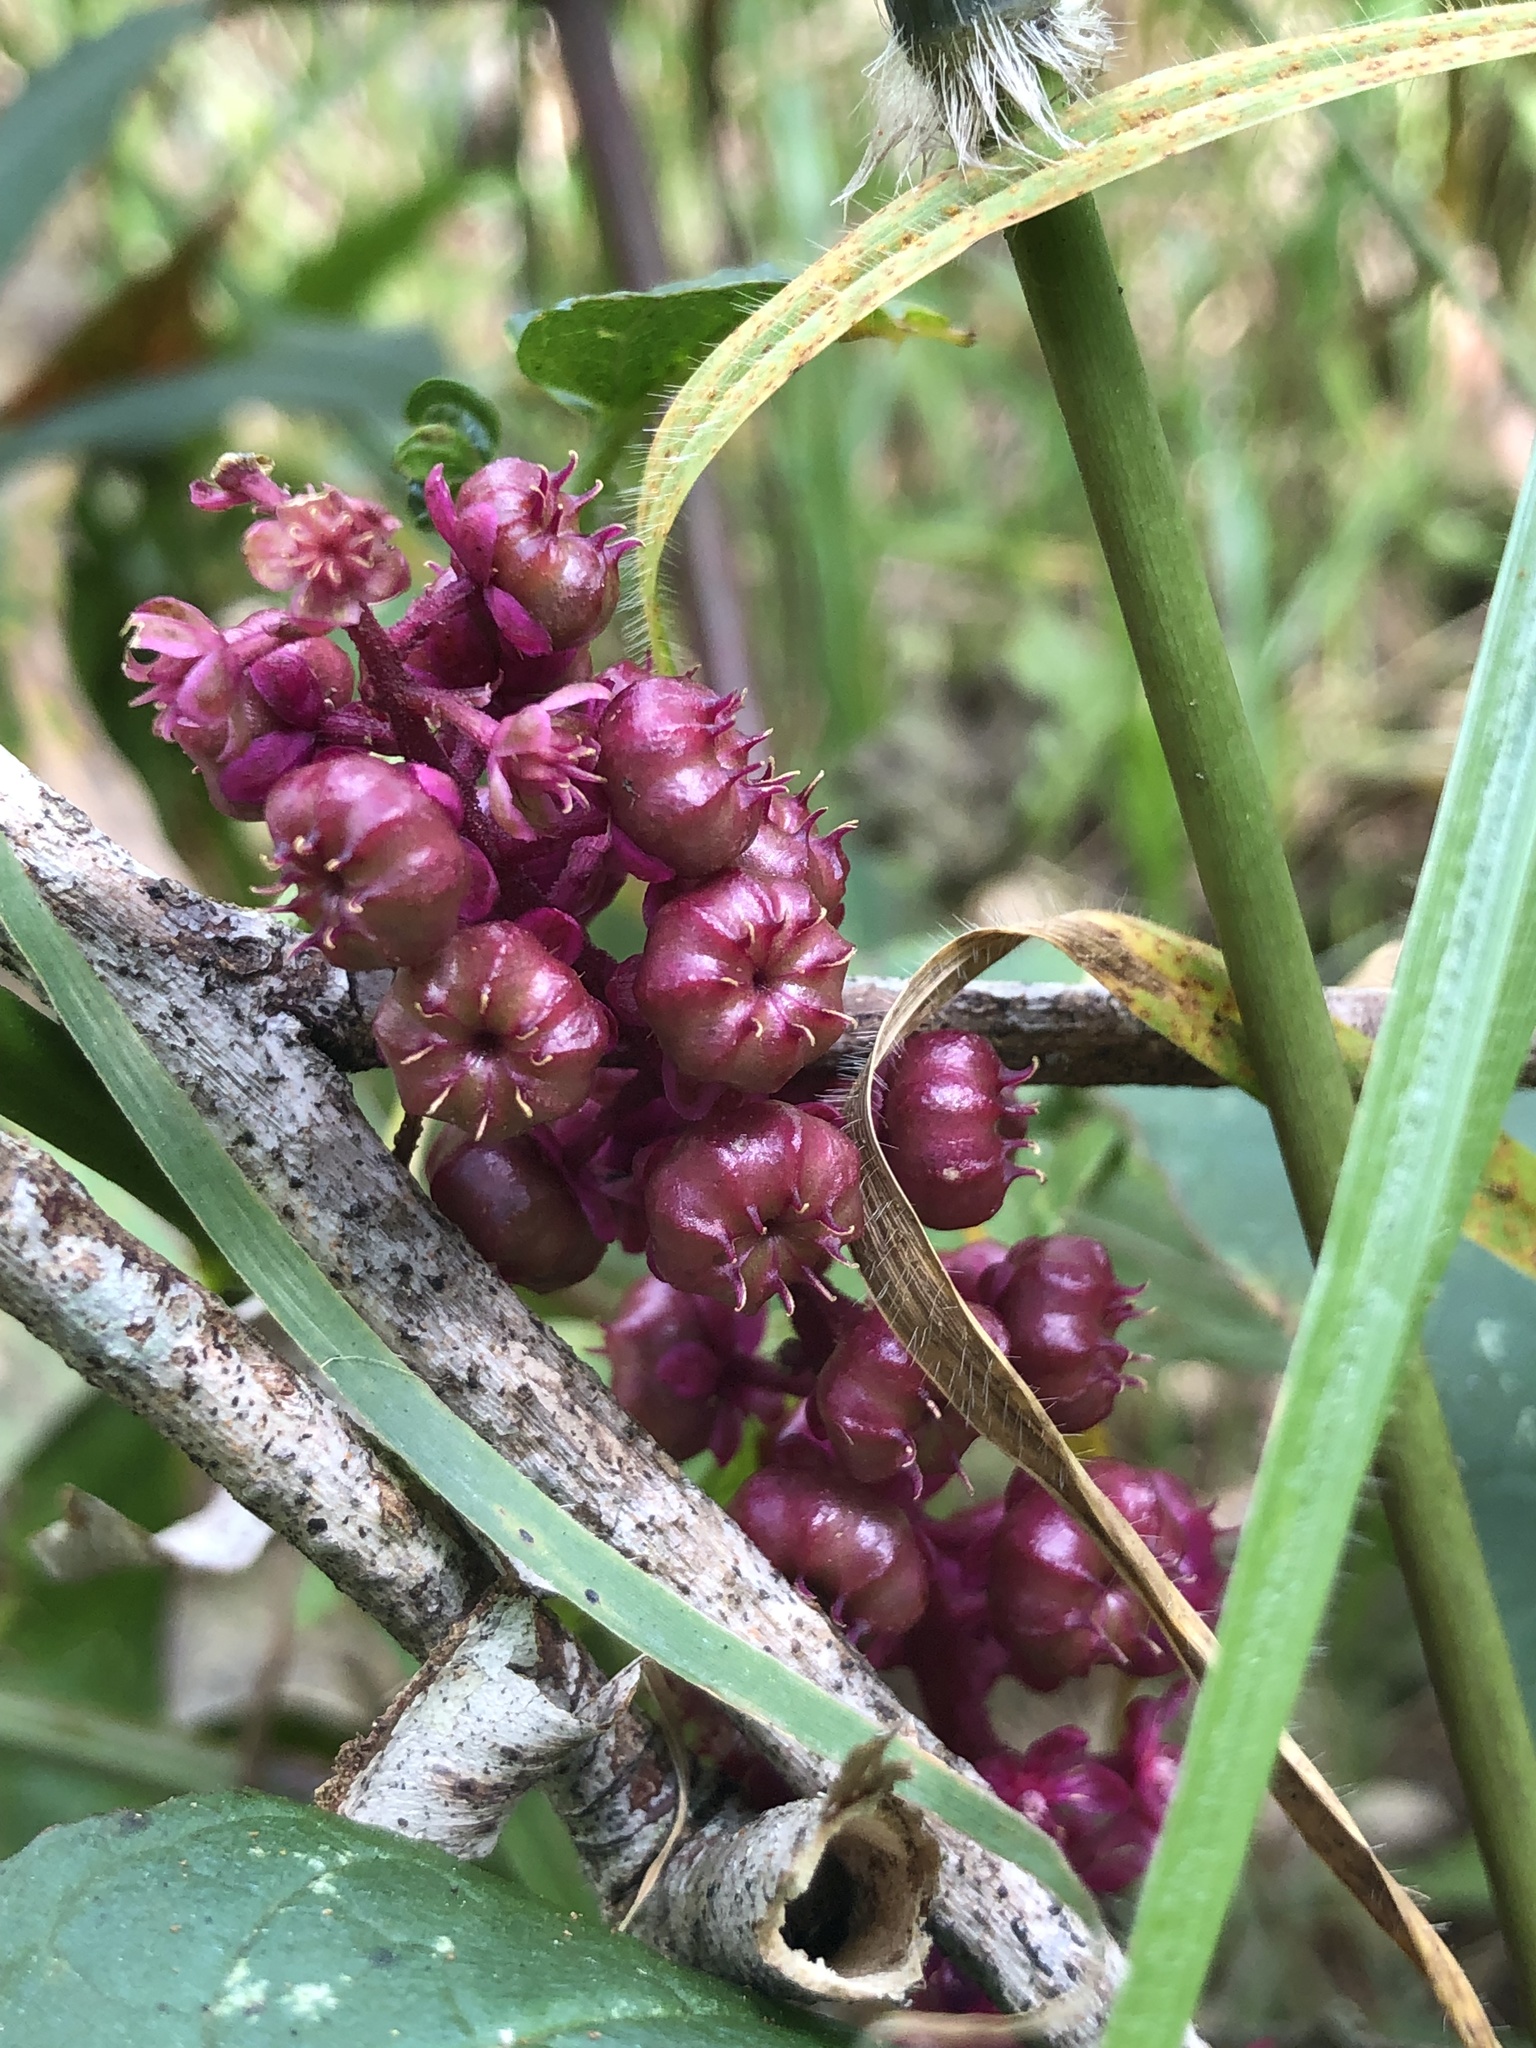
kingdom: Plantae
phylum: Tracheophyta
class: Magnoliopsida
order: Caryophyllales
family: Phytolaccaceae
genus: Phytolacca
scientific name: Phytolacca rugosa
